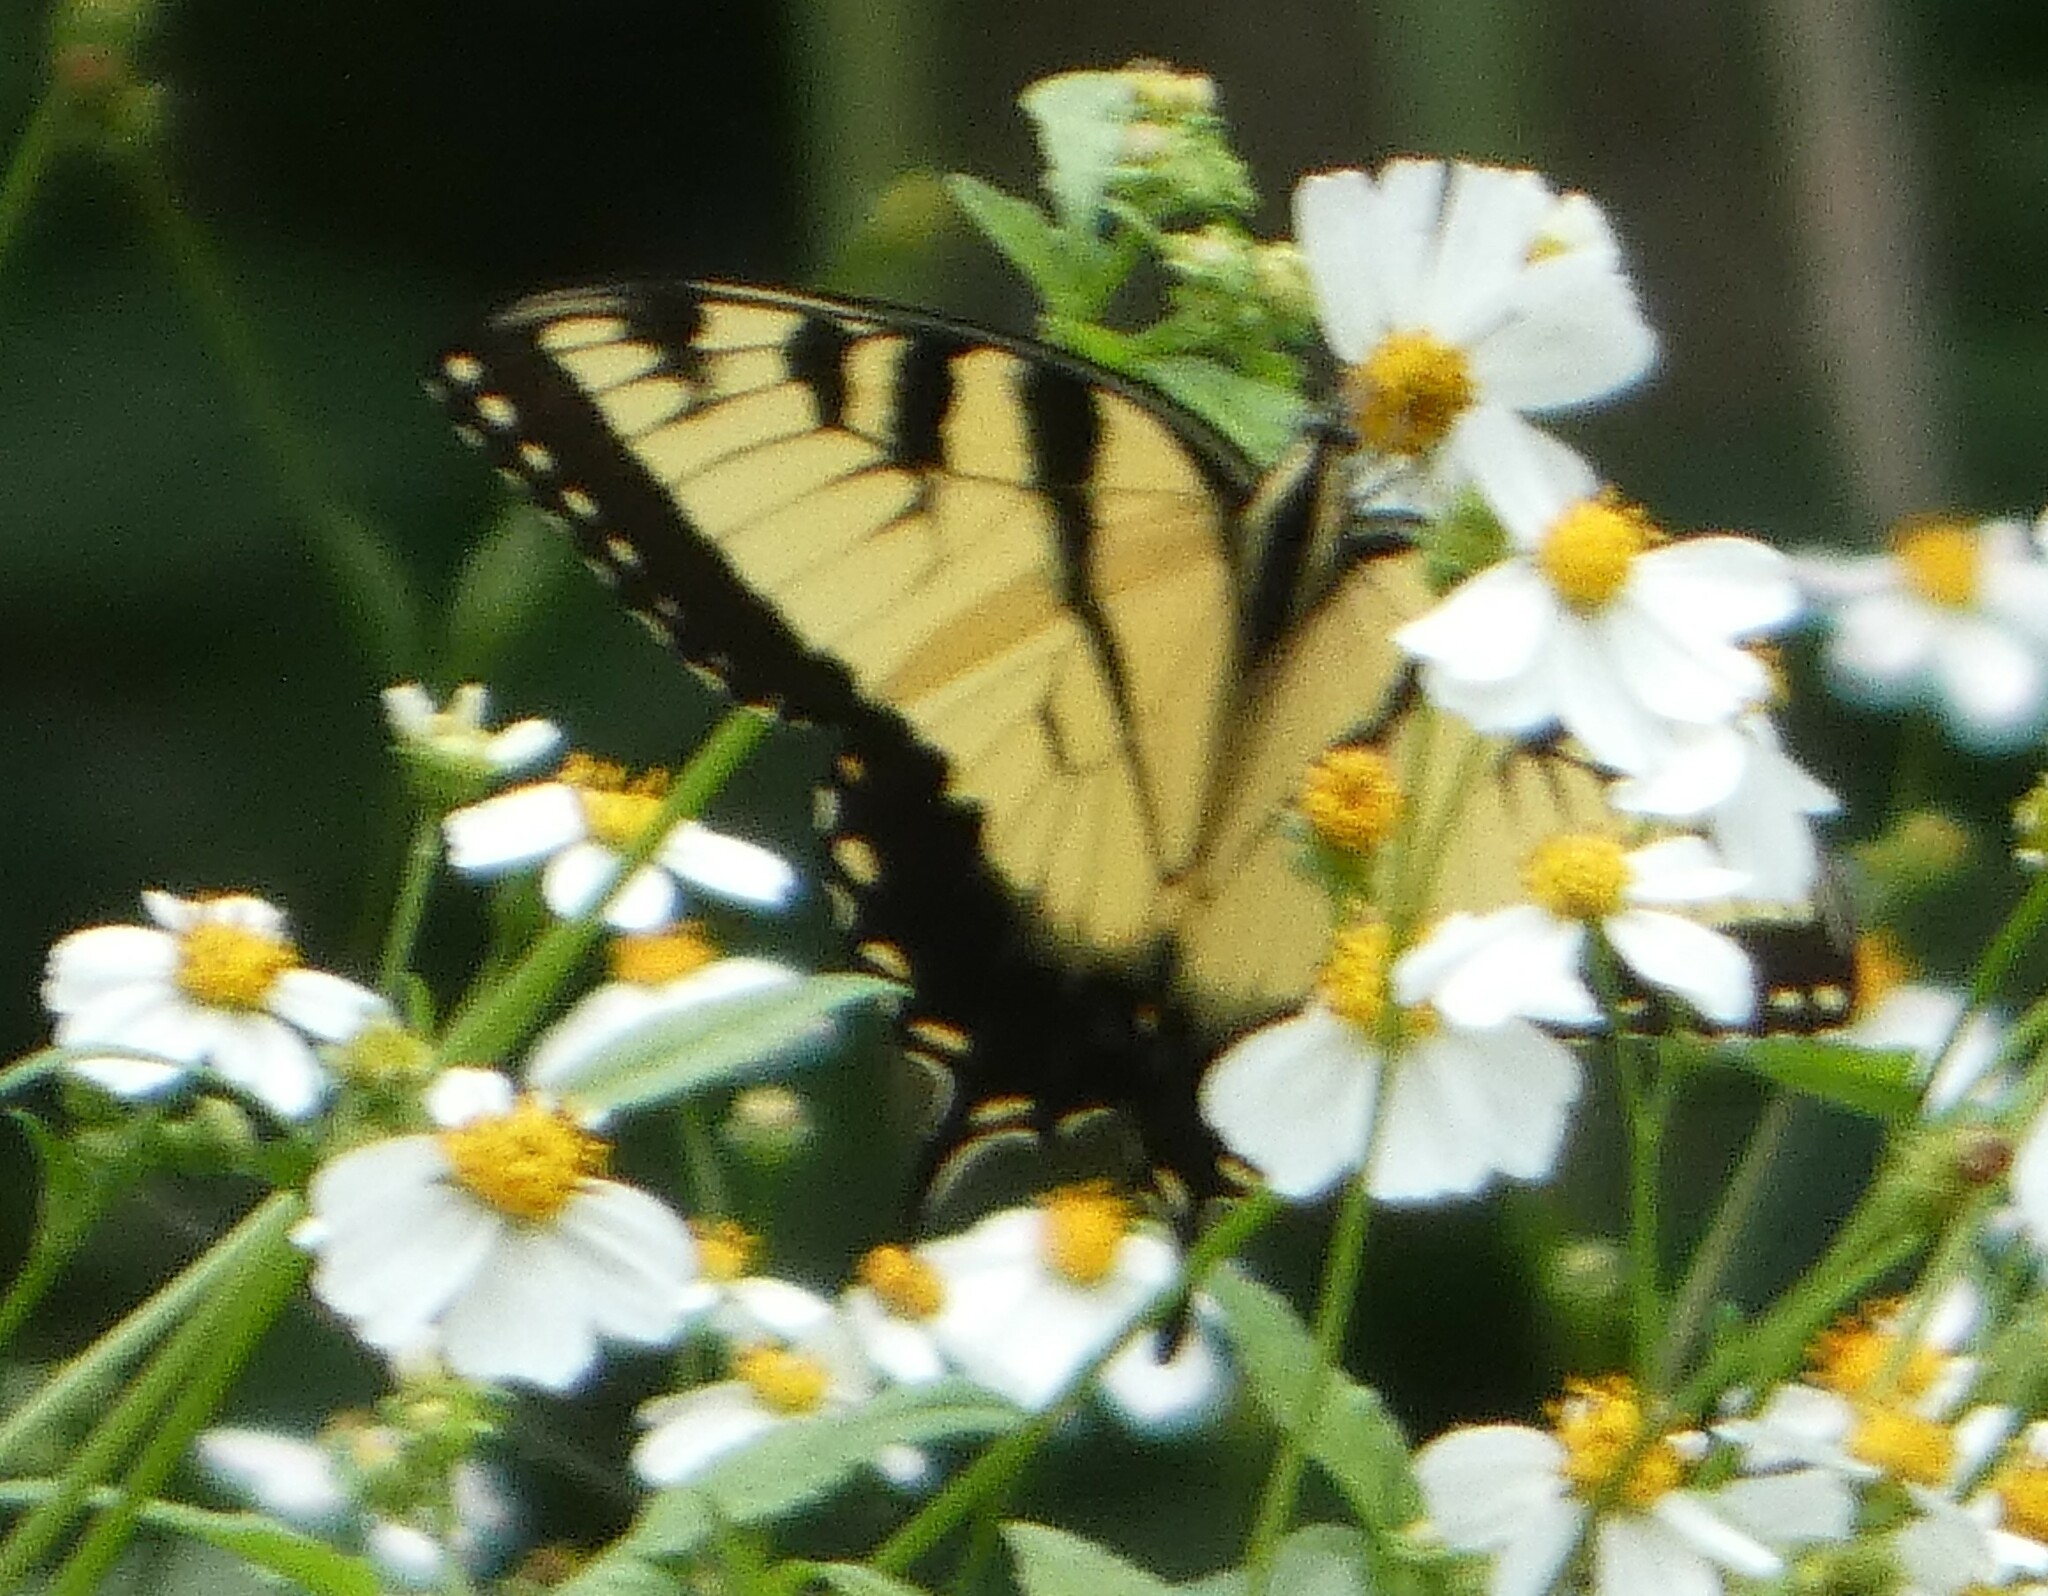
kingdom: Animalia
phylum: Arthropoda
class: Insecta
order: Lepidoptera
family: Papilionidae
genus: Papilio
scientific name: Papilio glaucus
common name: Tiger swallowtail
